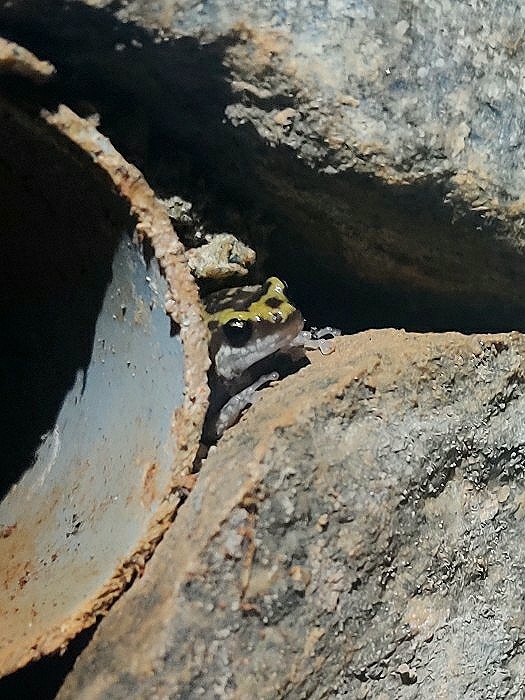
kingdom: Animalia
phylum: Chordata
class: Amphibia
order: Anura
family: Microhylidae
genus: Uperodon
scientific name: Uperodon variegatus
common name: Eluru dot frog
